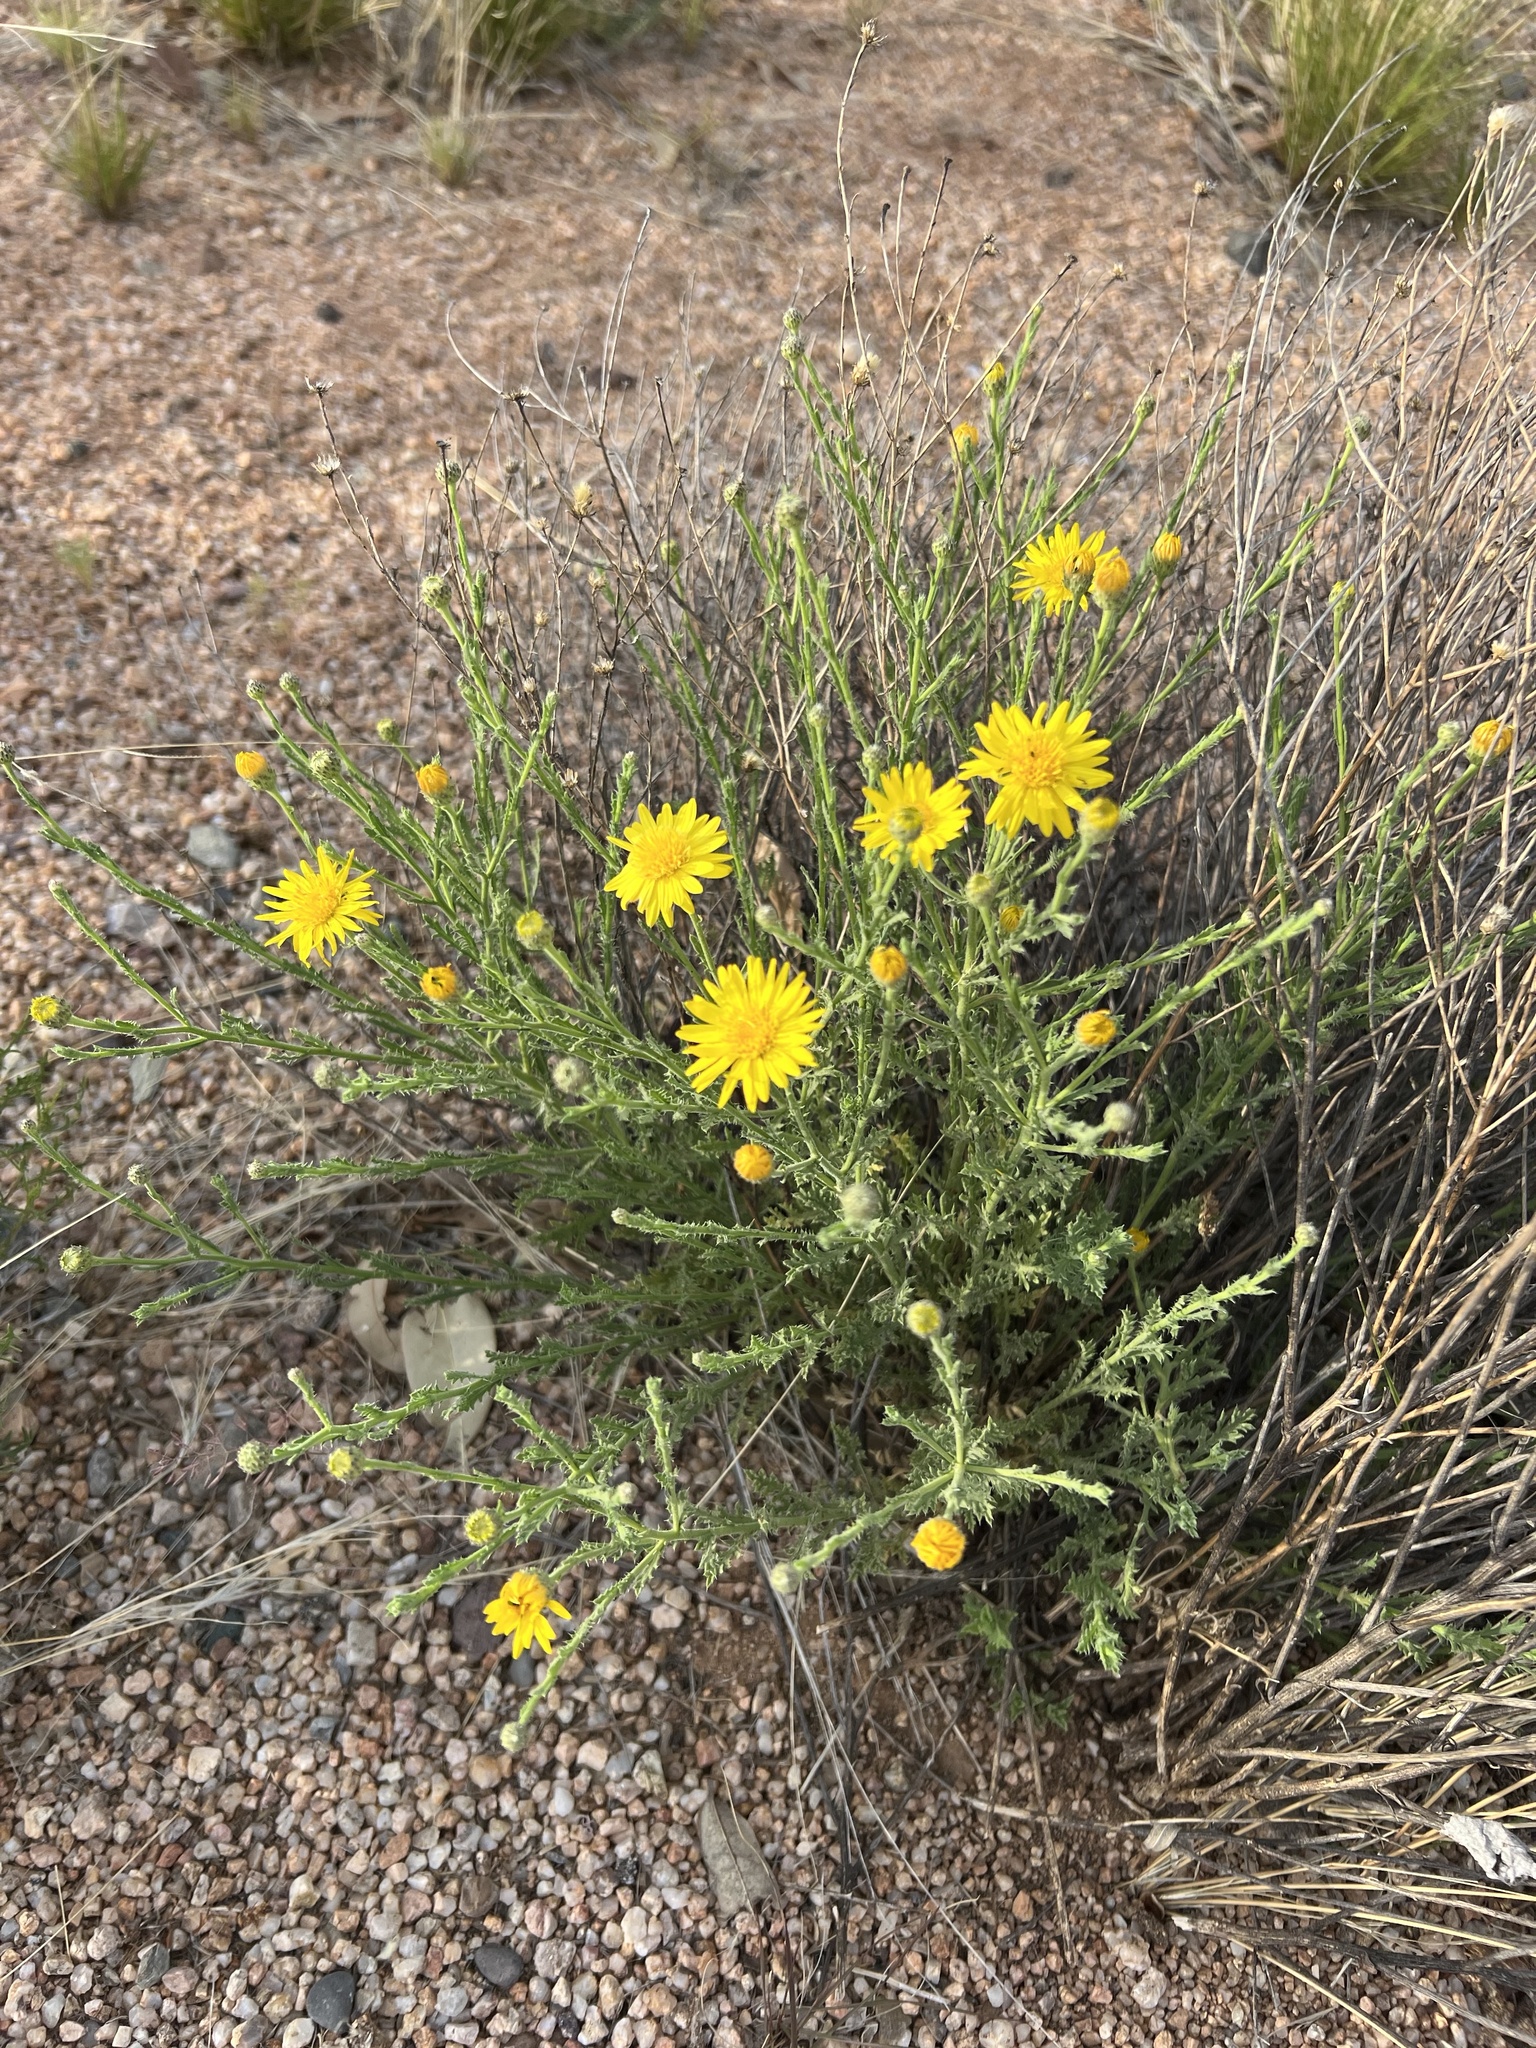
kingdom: Plantae
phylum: Tracheophyta
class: Magnoliopsida
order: Asterales
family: Asteraceae
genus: Xanthisma
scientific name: Xanthisma spinulosum
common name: Spiny goldenweed
